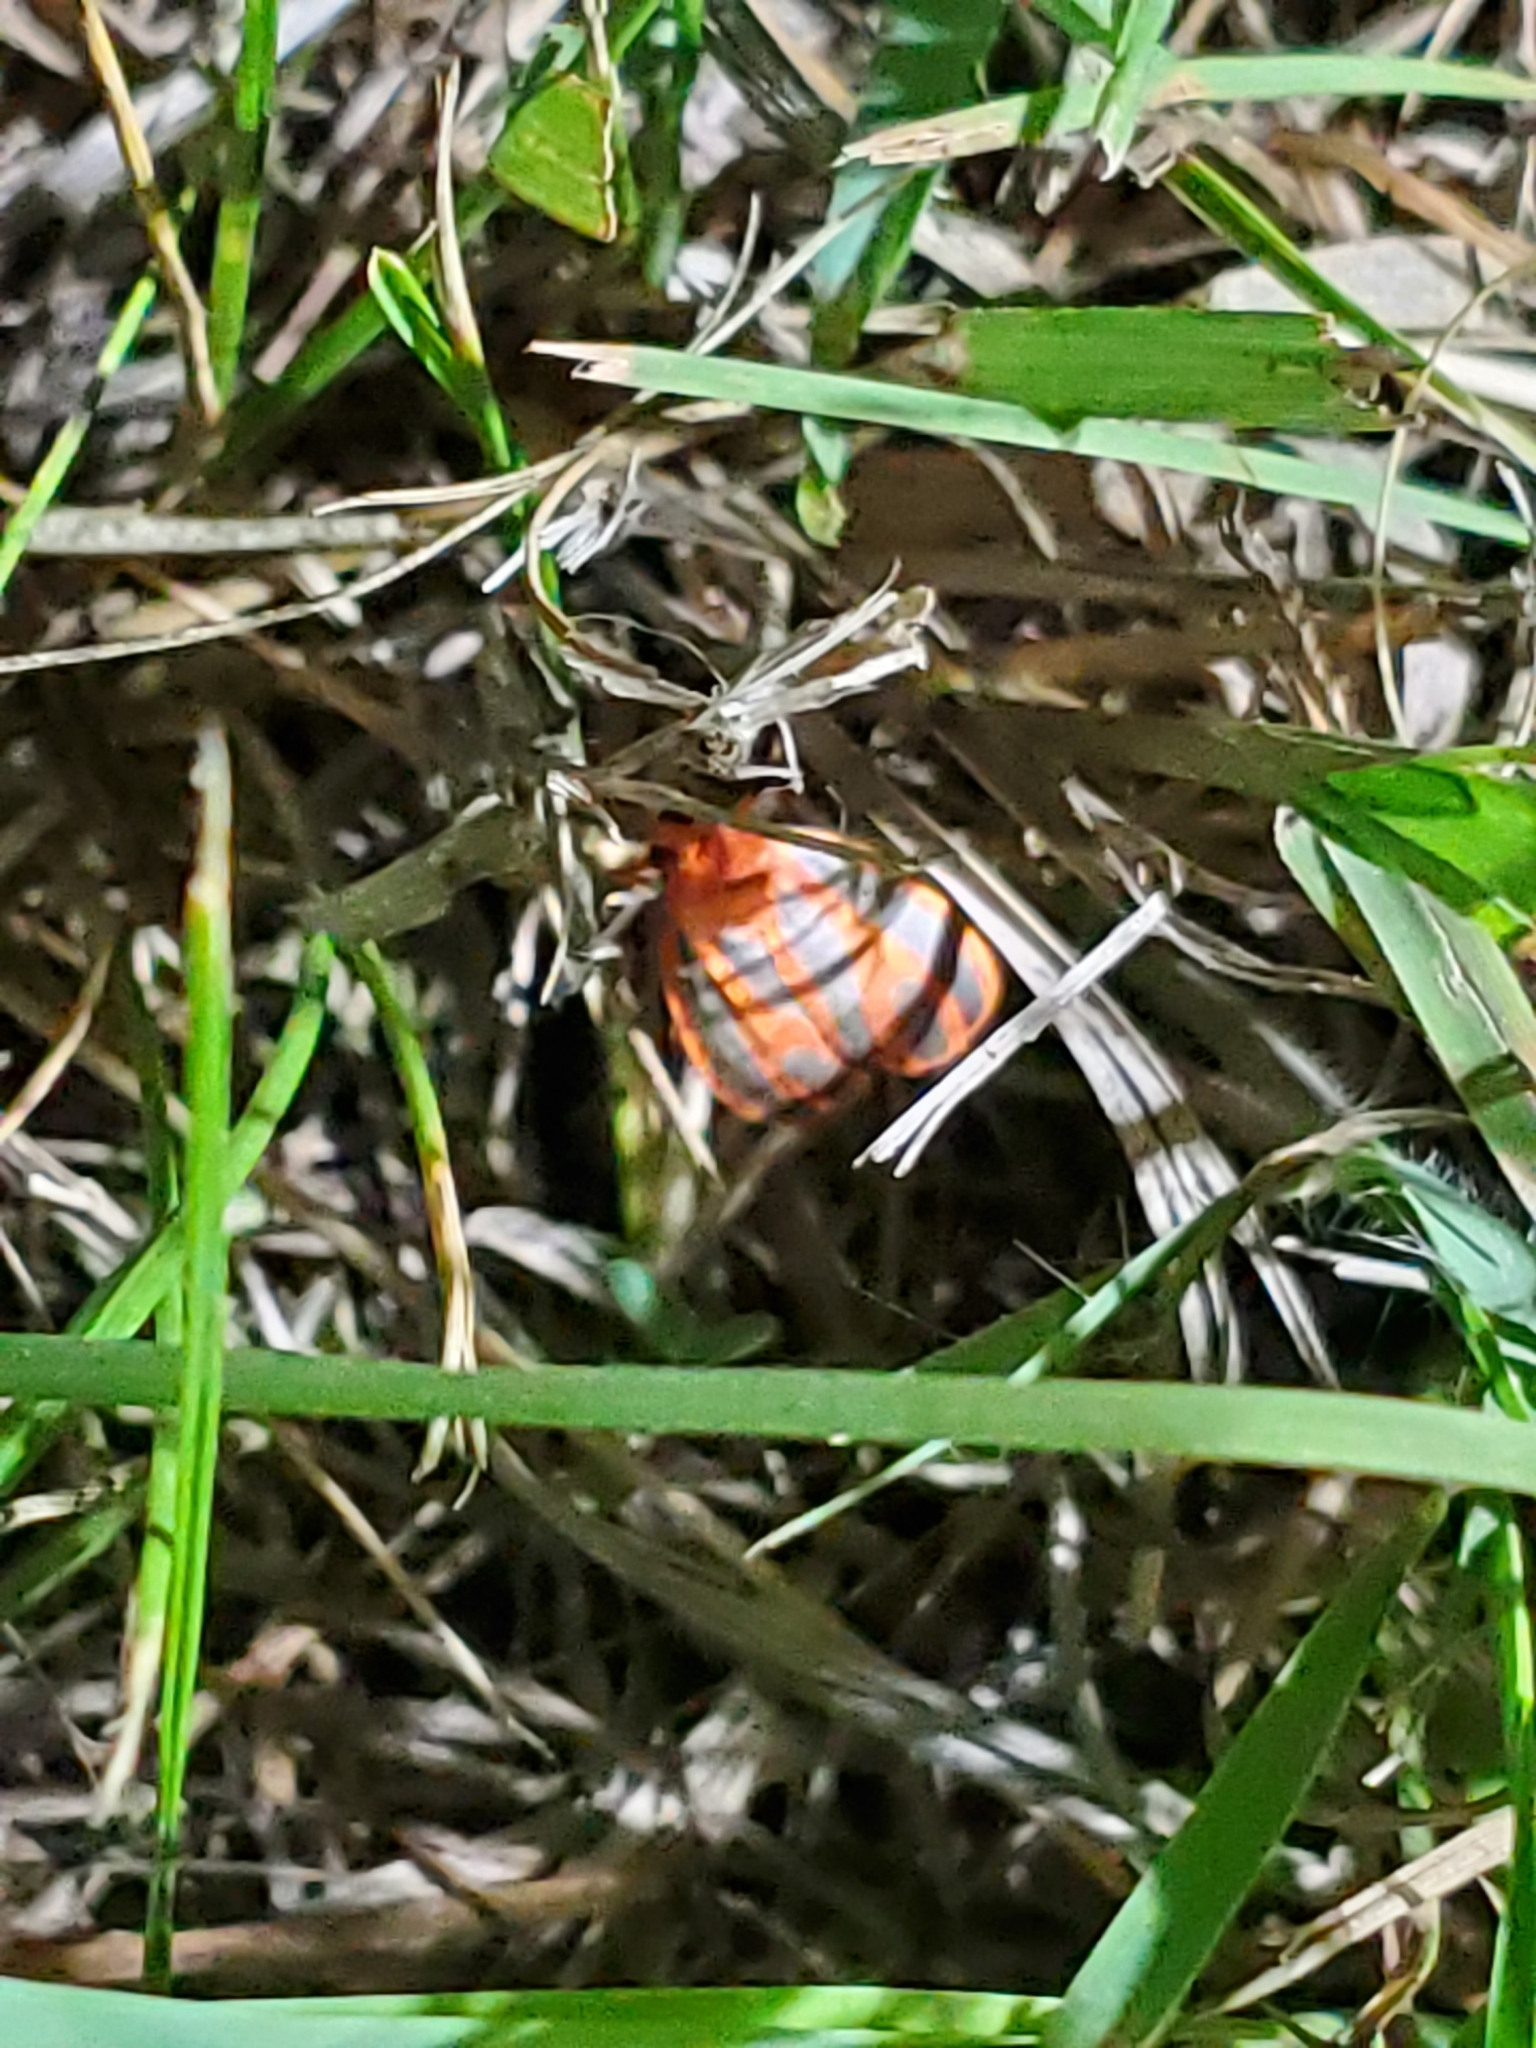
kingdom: Animalia
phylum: Arthropoda
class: Insecta
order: Lepidoptera
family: Erebidae
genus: Hypoprepia
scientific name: Hypoprepia miniata
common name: Scarlet-winged lichen moth
